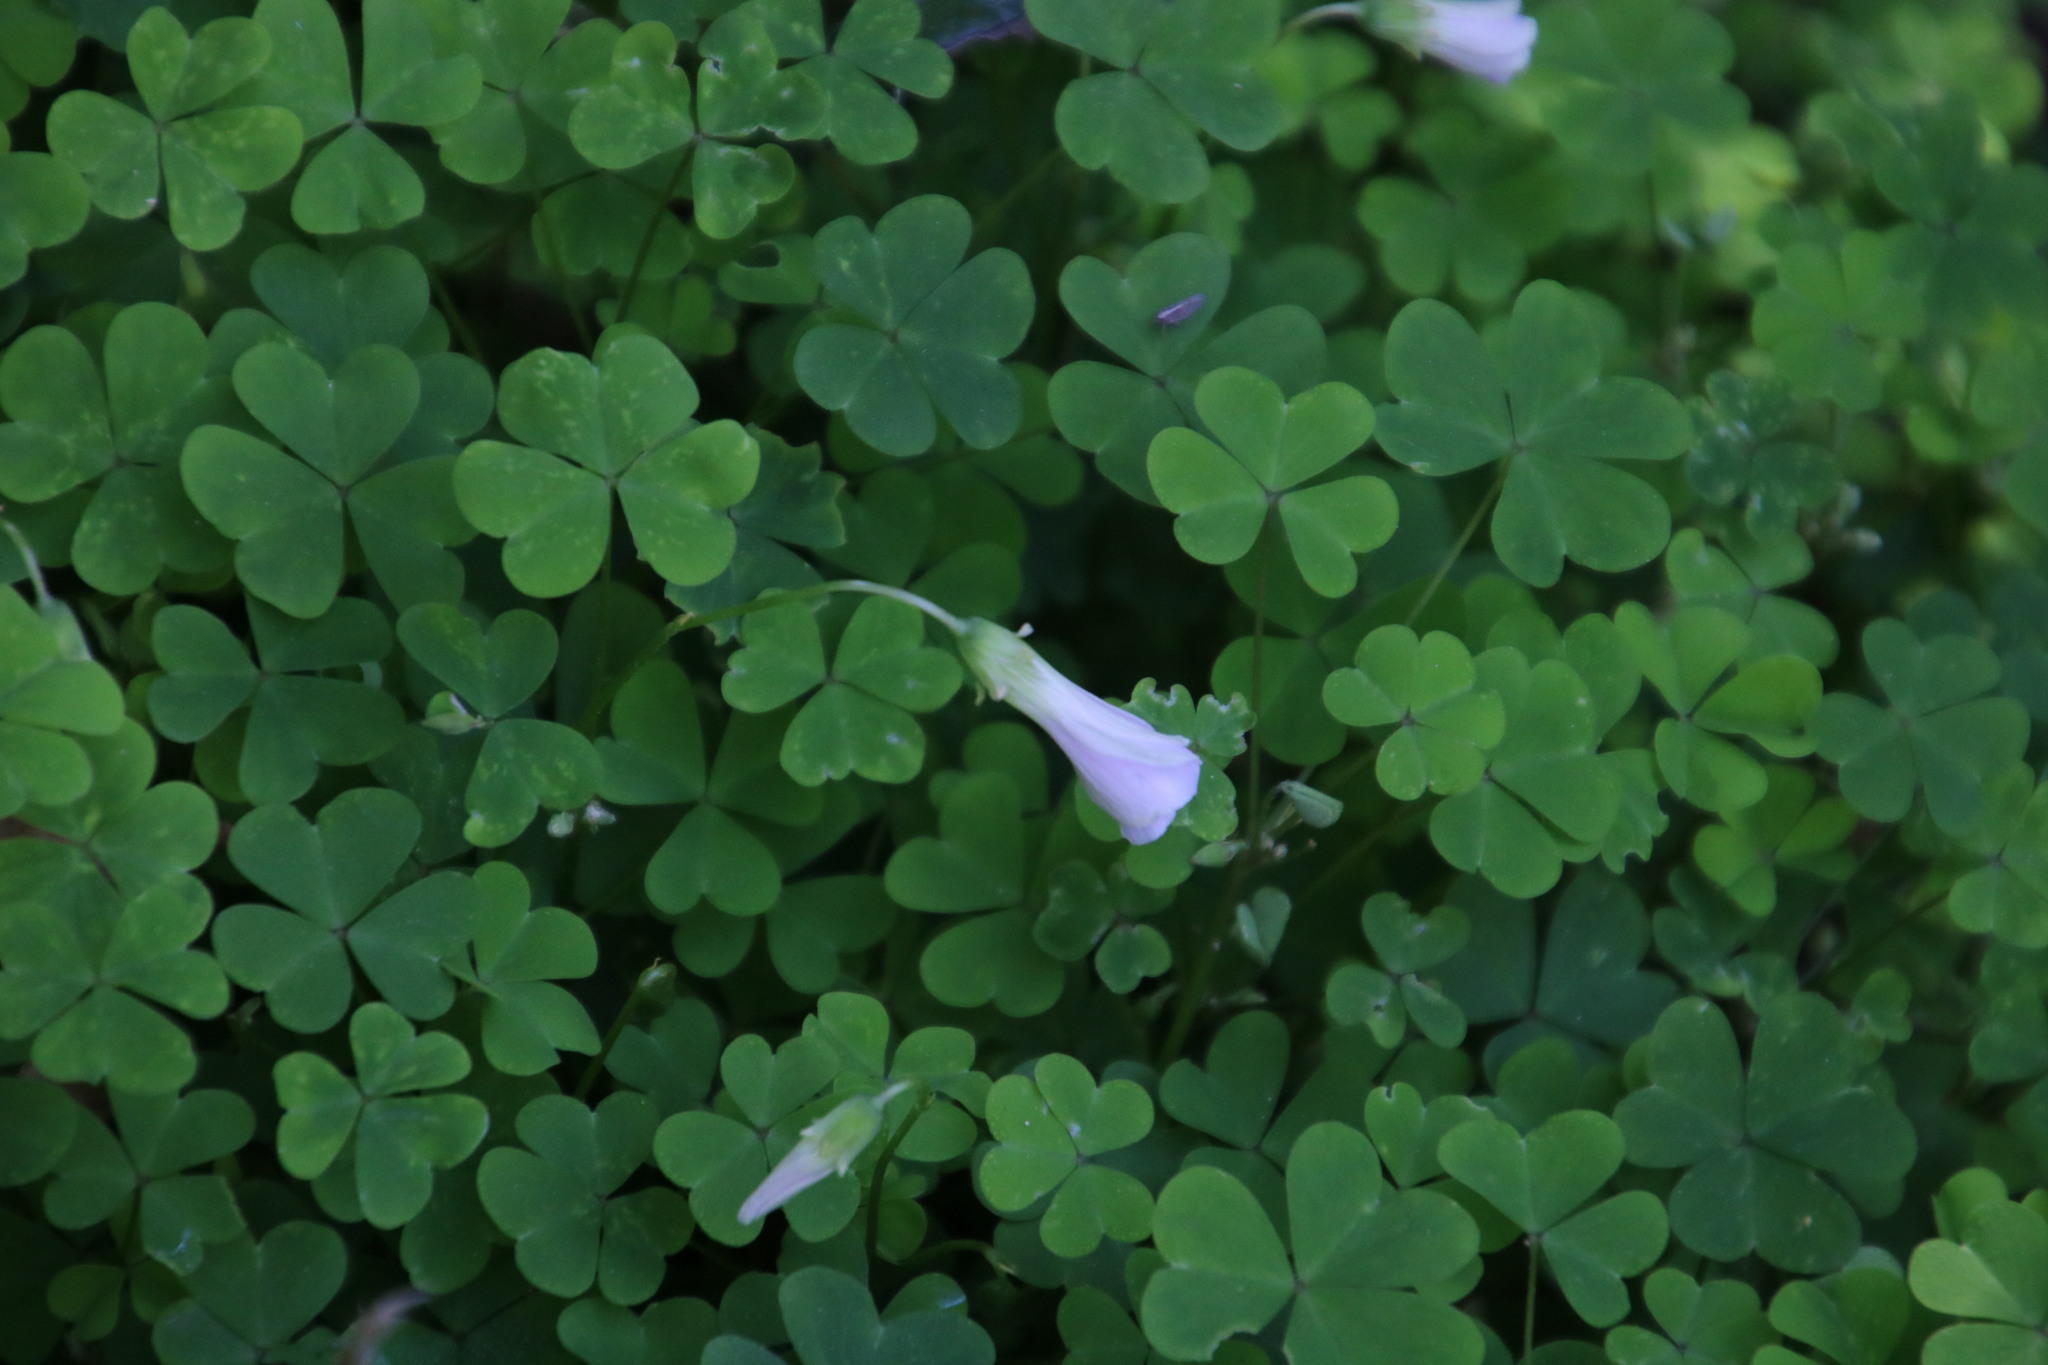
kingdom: Plantae
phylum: Tracheophyta
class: Magnoliopsida
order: Oxalidales
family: Oxalidaceae
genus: Oxalis
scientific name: Oxalis incarnata
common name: Pale pink-sorrel
